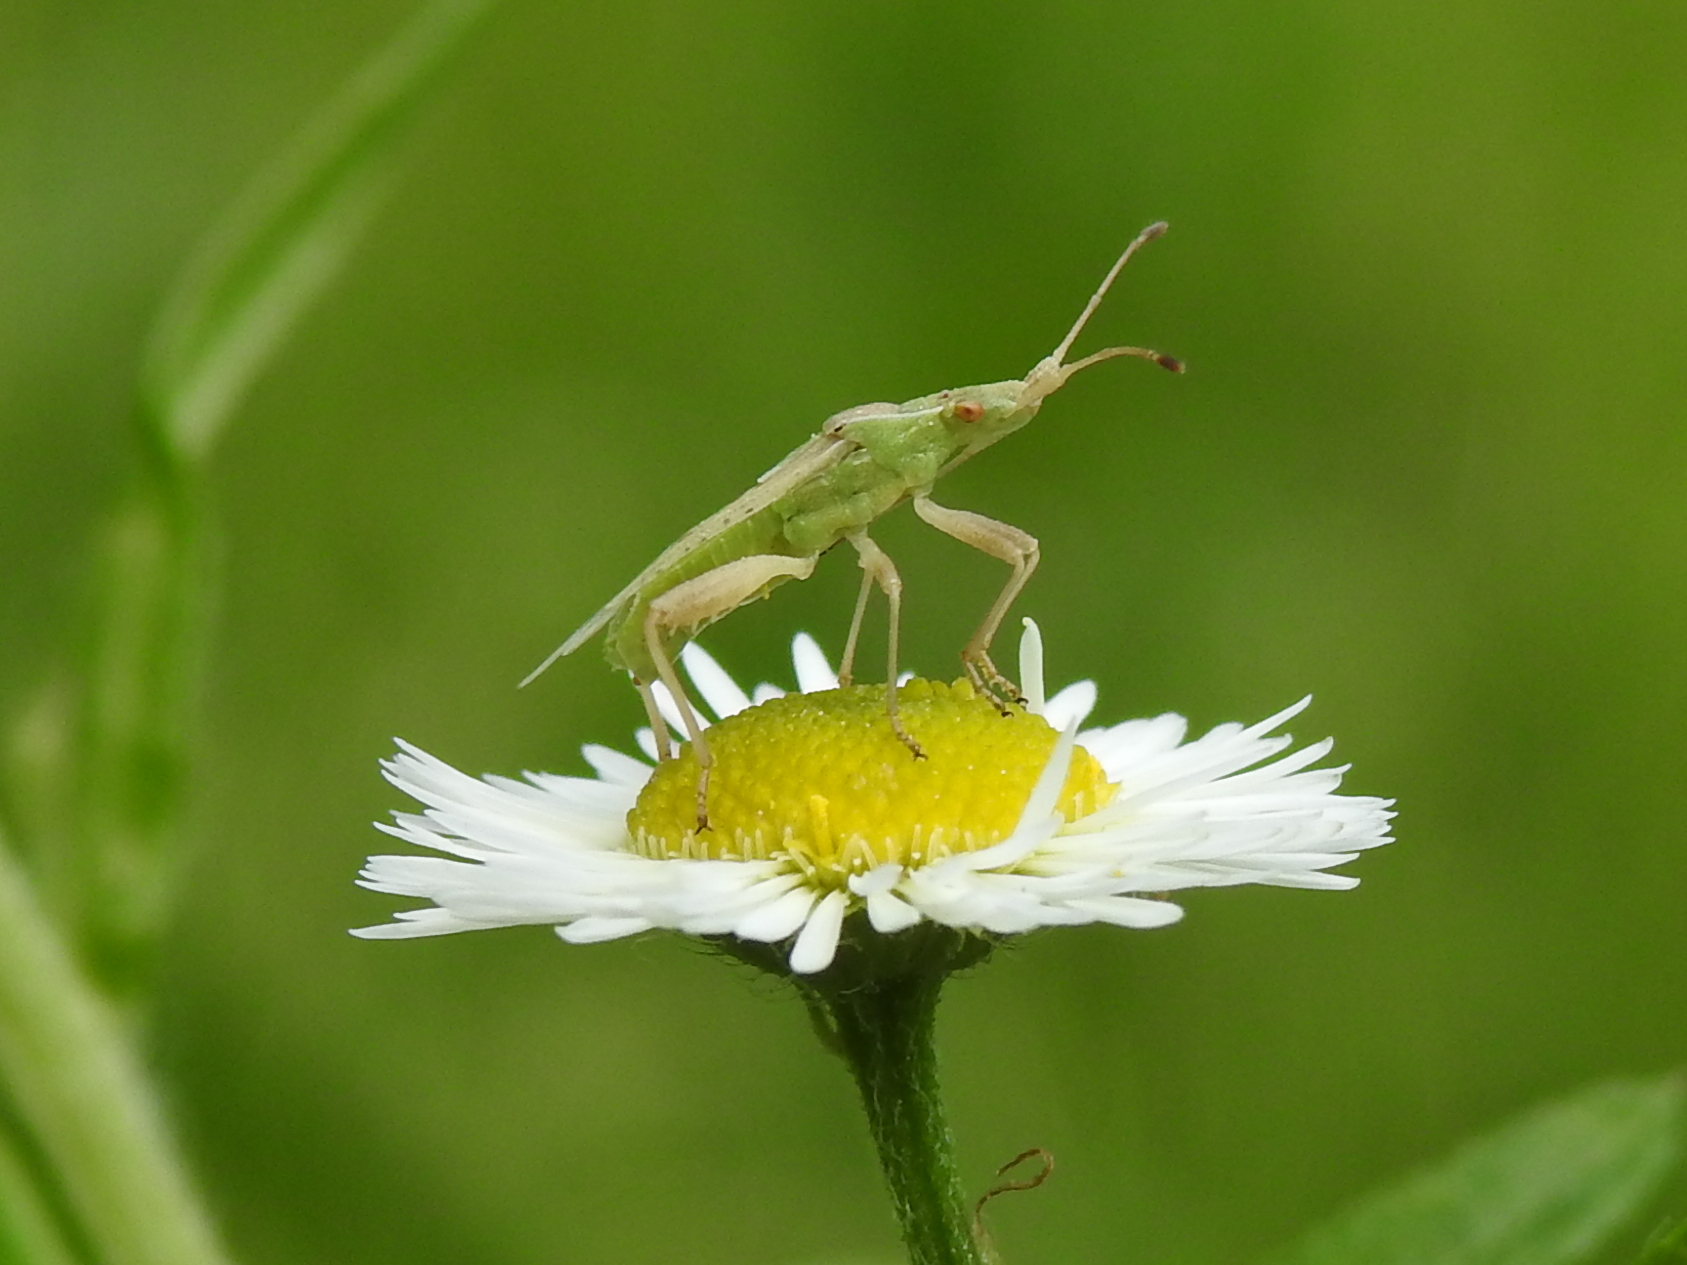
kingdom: Animalia
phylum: Arthropoda
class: Insecta
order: Hemiptera
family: Rhopalidae
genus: Harmostes
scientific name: Harmostes reflexulus
